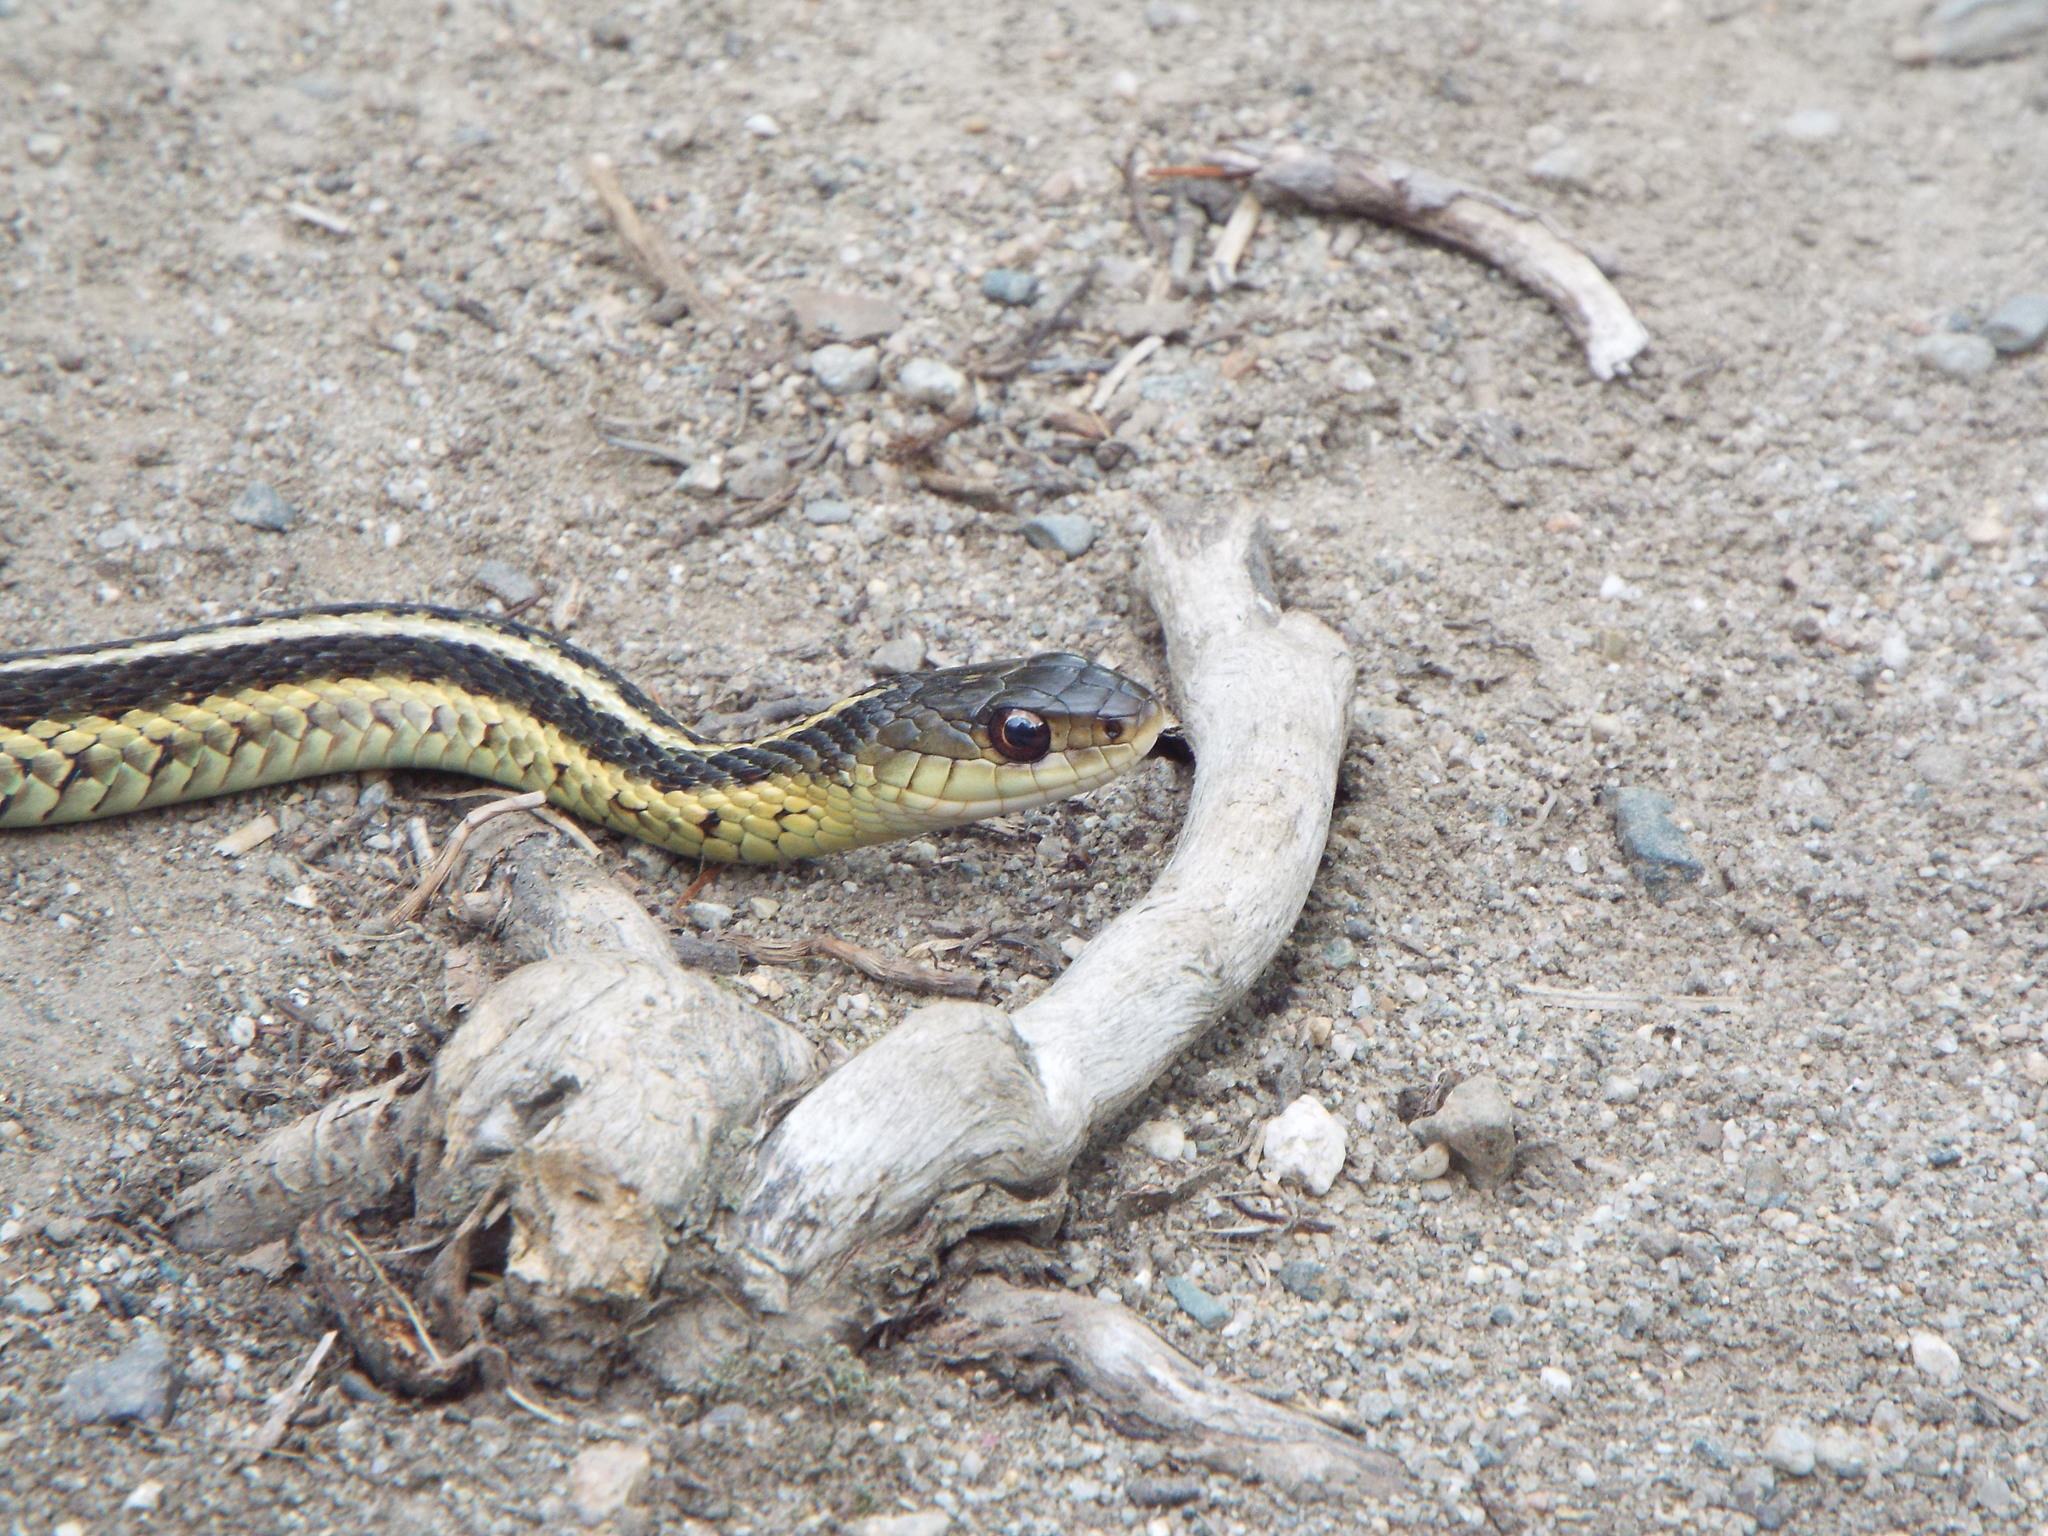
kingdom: Animalia
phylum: Chordata
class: Squamata
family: Colubridae
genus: Thamnophis
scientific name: Thamnophis sirtalis
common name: Common garter snake
